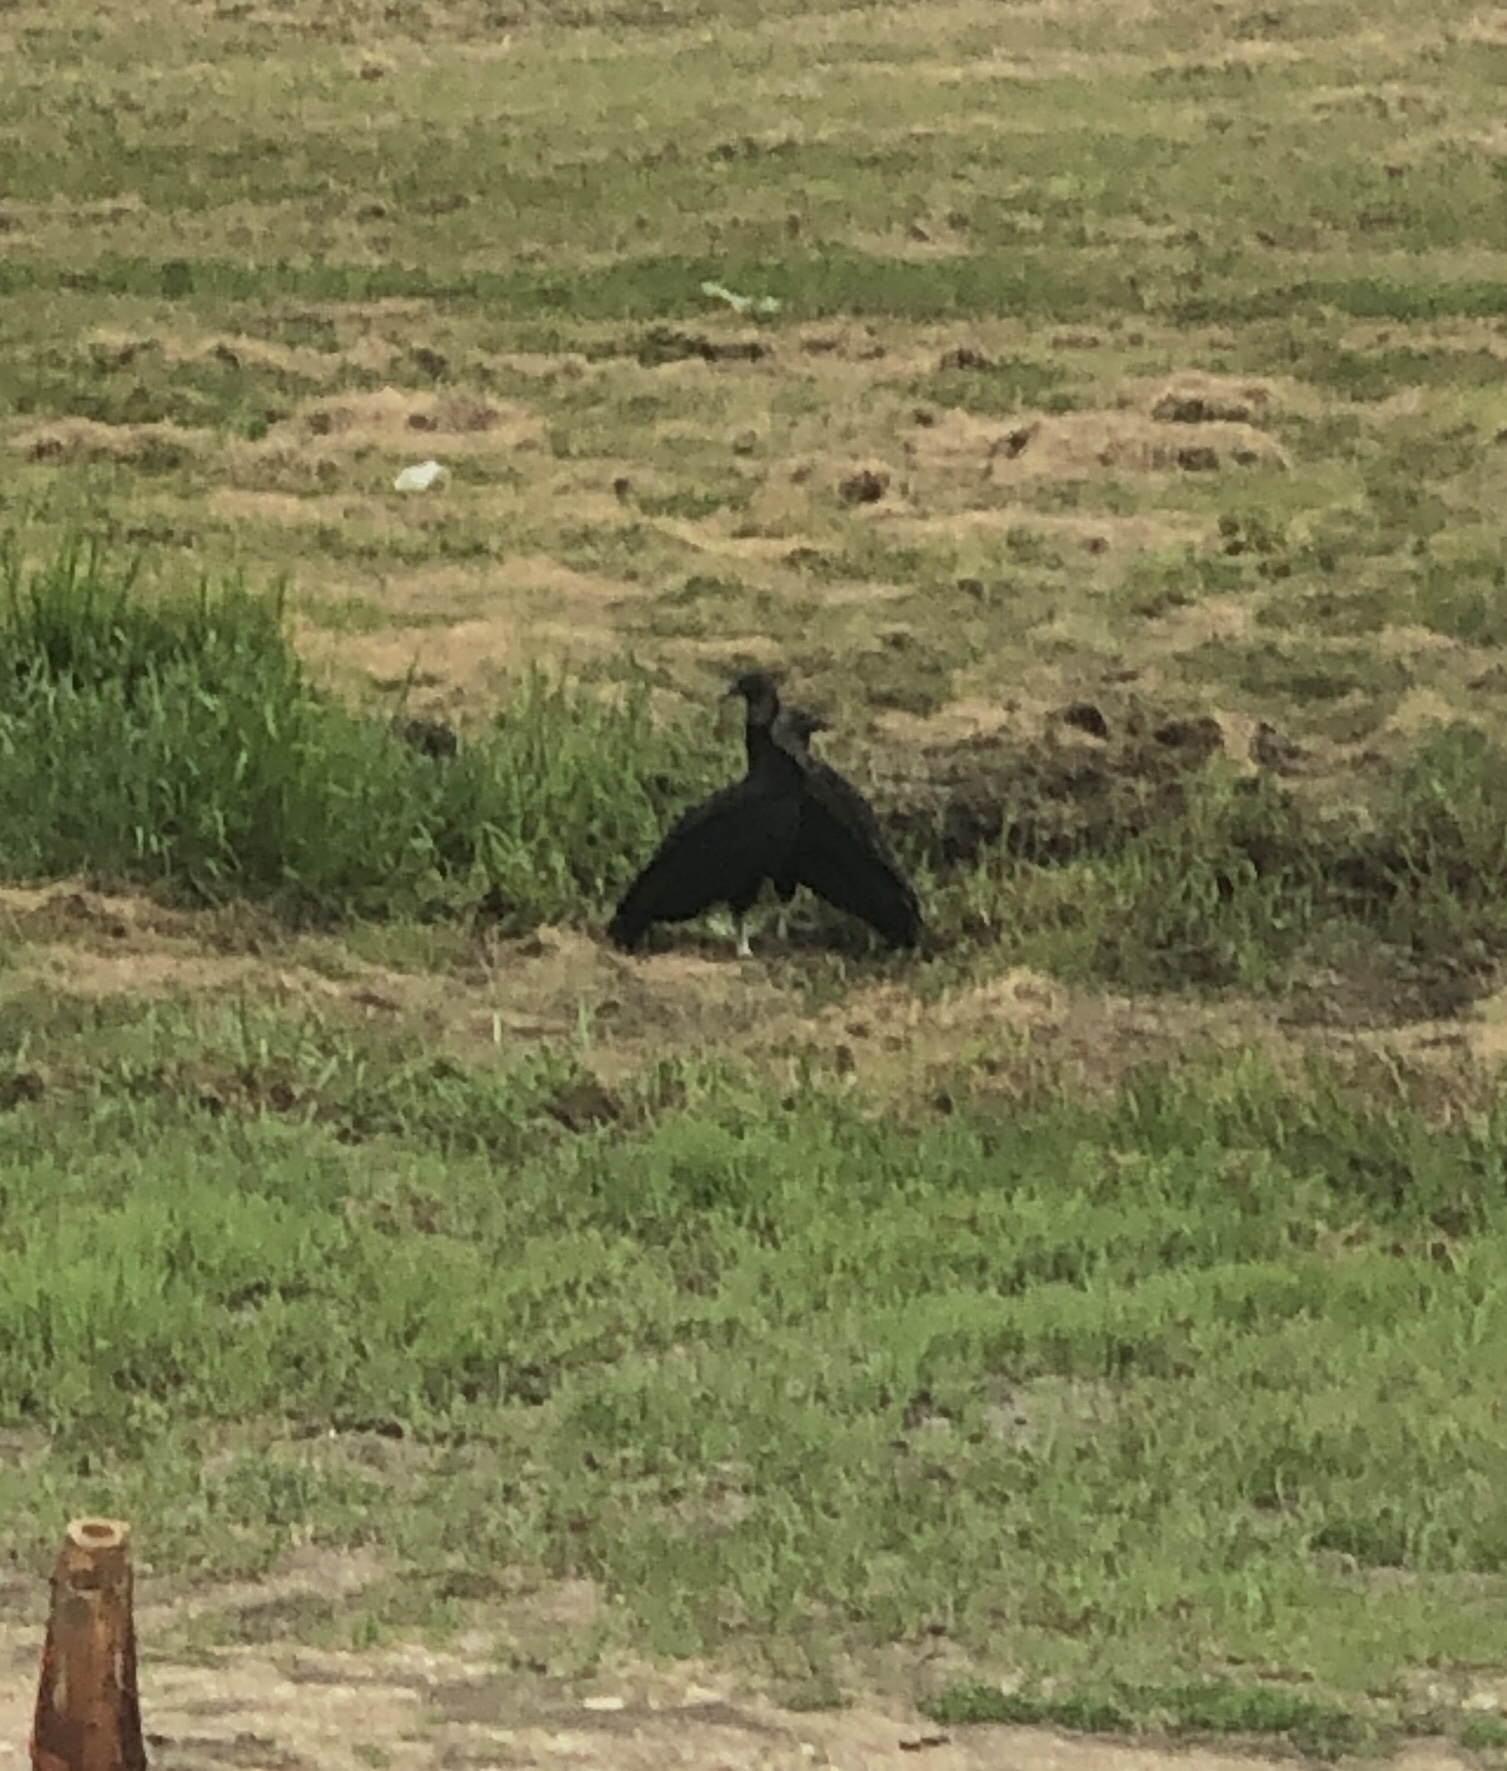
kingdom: Animalia
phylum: Chordata
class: Aves
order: Accipitriformes
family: Cathartidae
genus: Coragyps
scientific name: Coragyps atratus
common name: Black vulture
